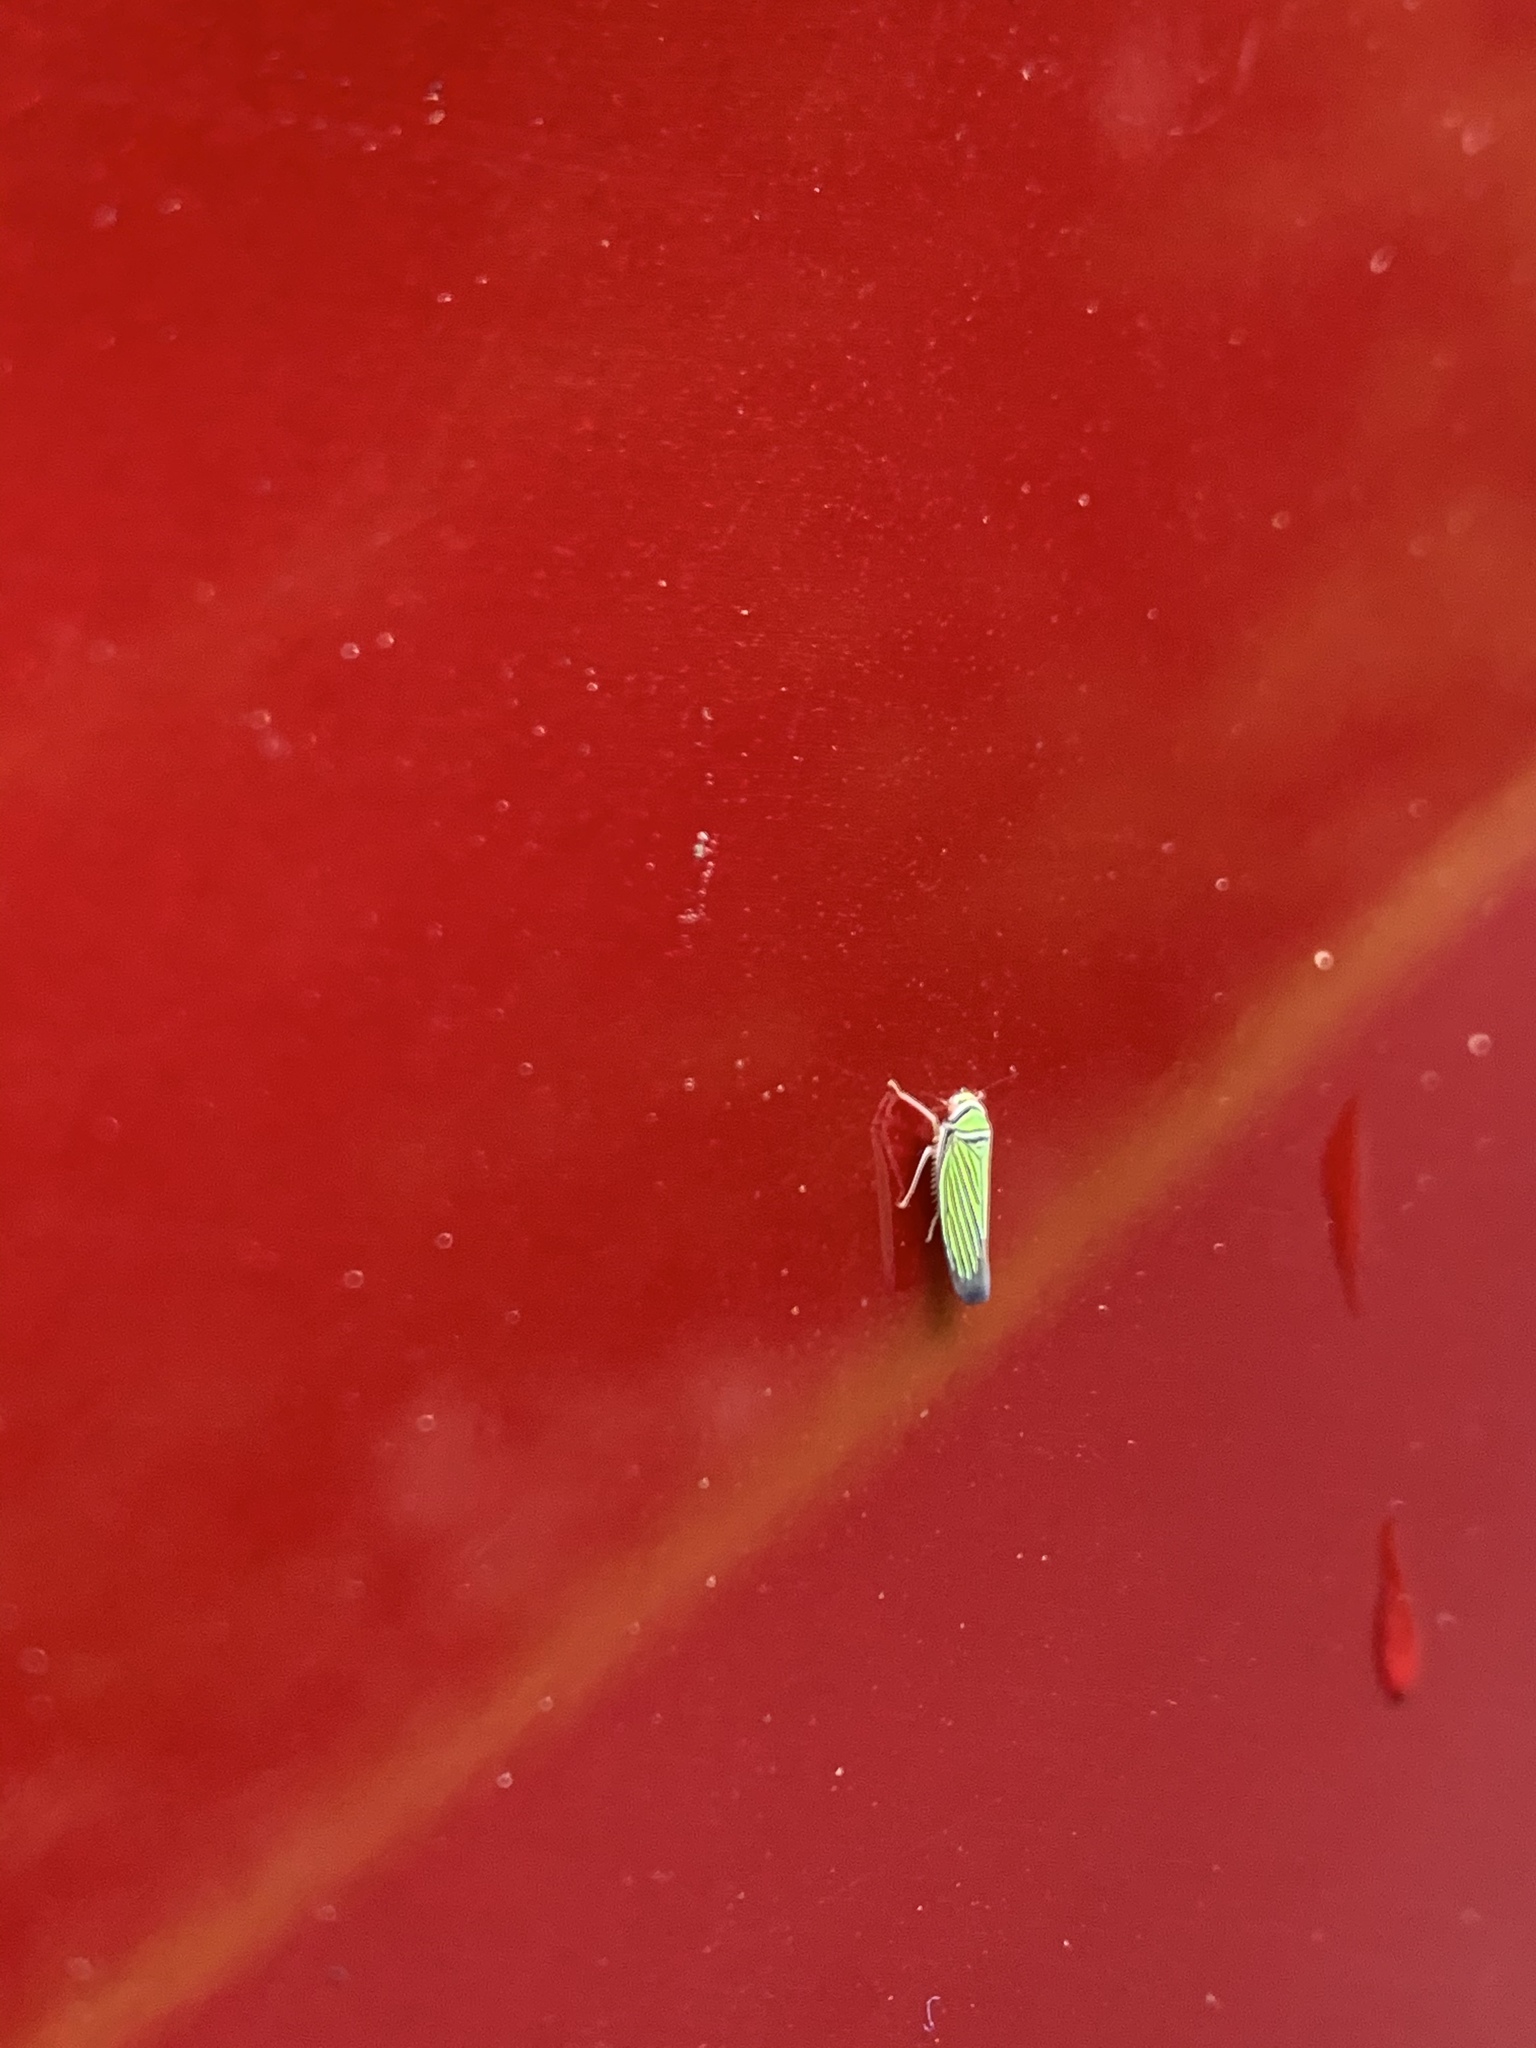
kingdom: Animalia
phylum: Arthropoda
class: Insecta
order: Hemiptera
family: Cicadellidae
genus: Tylozygus
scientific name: Tylozygus bifidus
